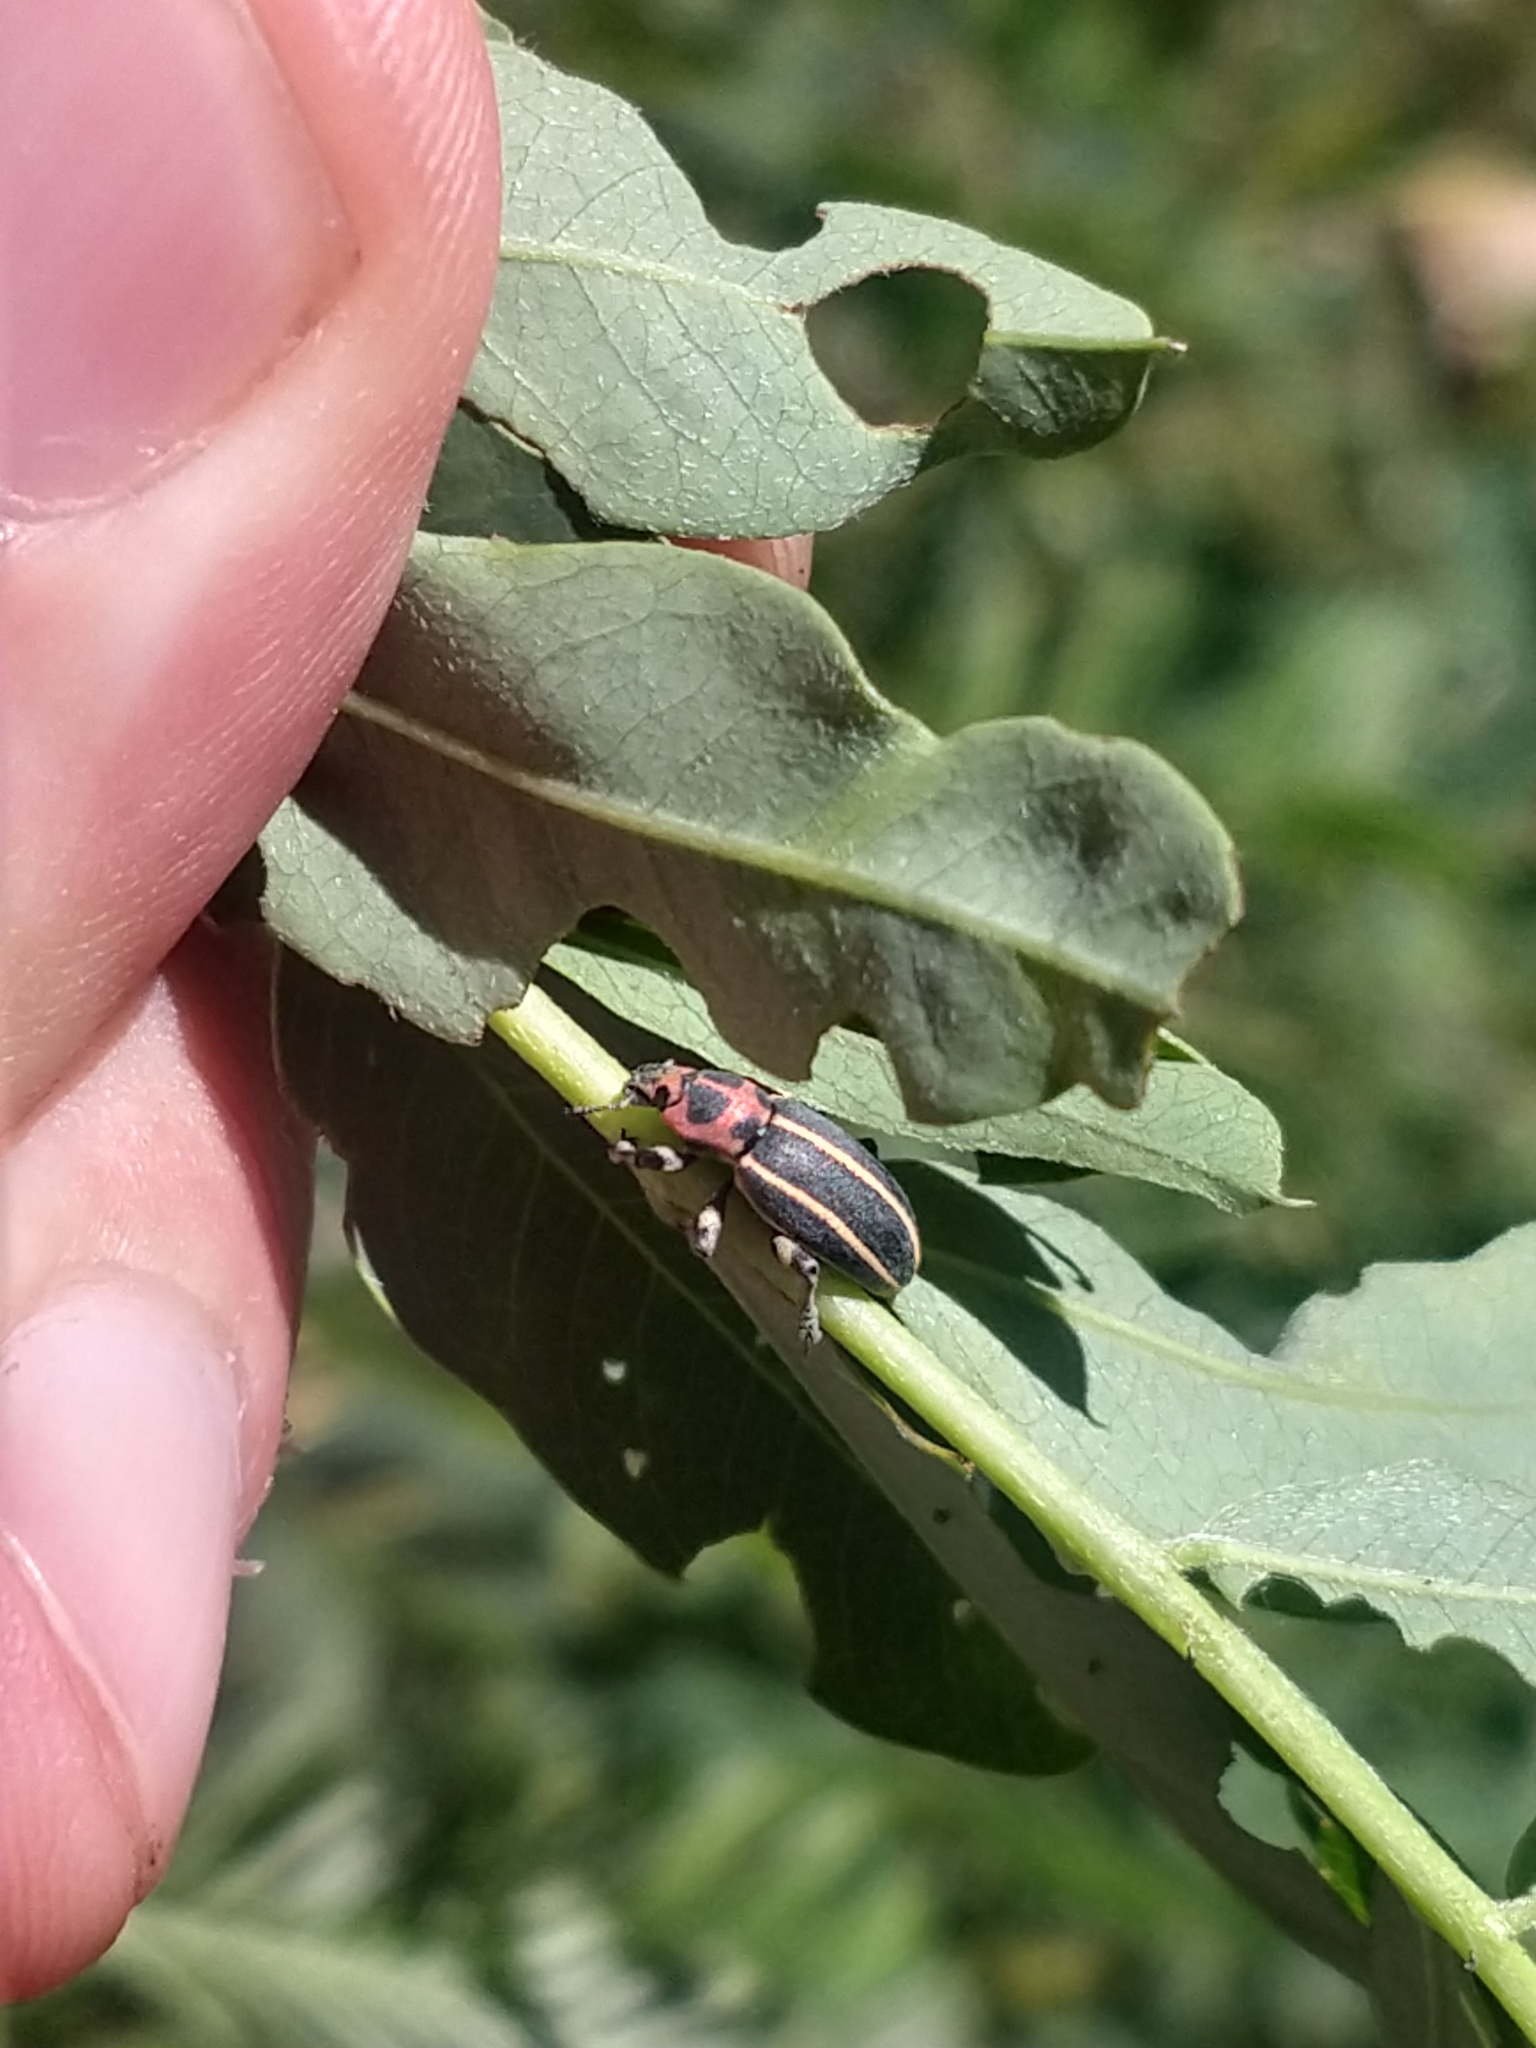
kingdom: Animalia
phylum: Arthropoda
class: Insecta
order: Coleoptera
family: Curculionidae
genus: Eudiagogus
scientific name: Eudiagogus episcopalis
